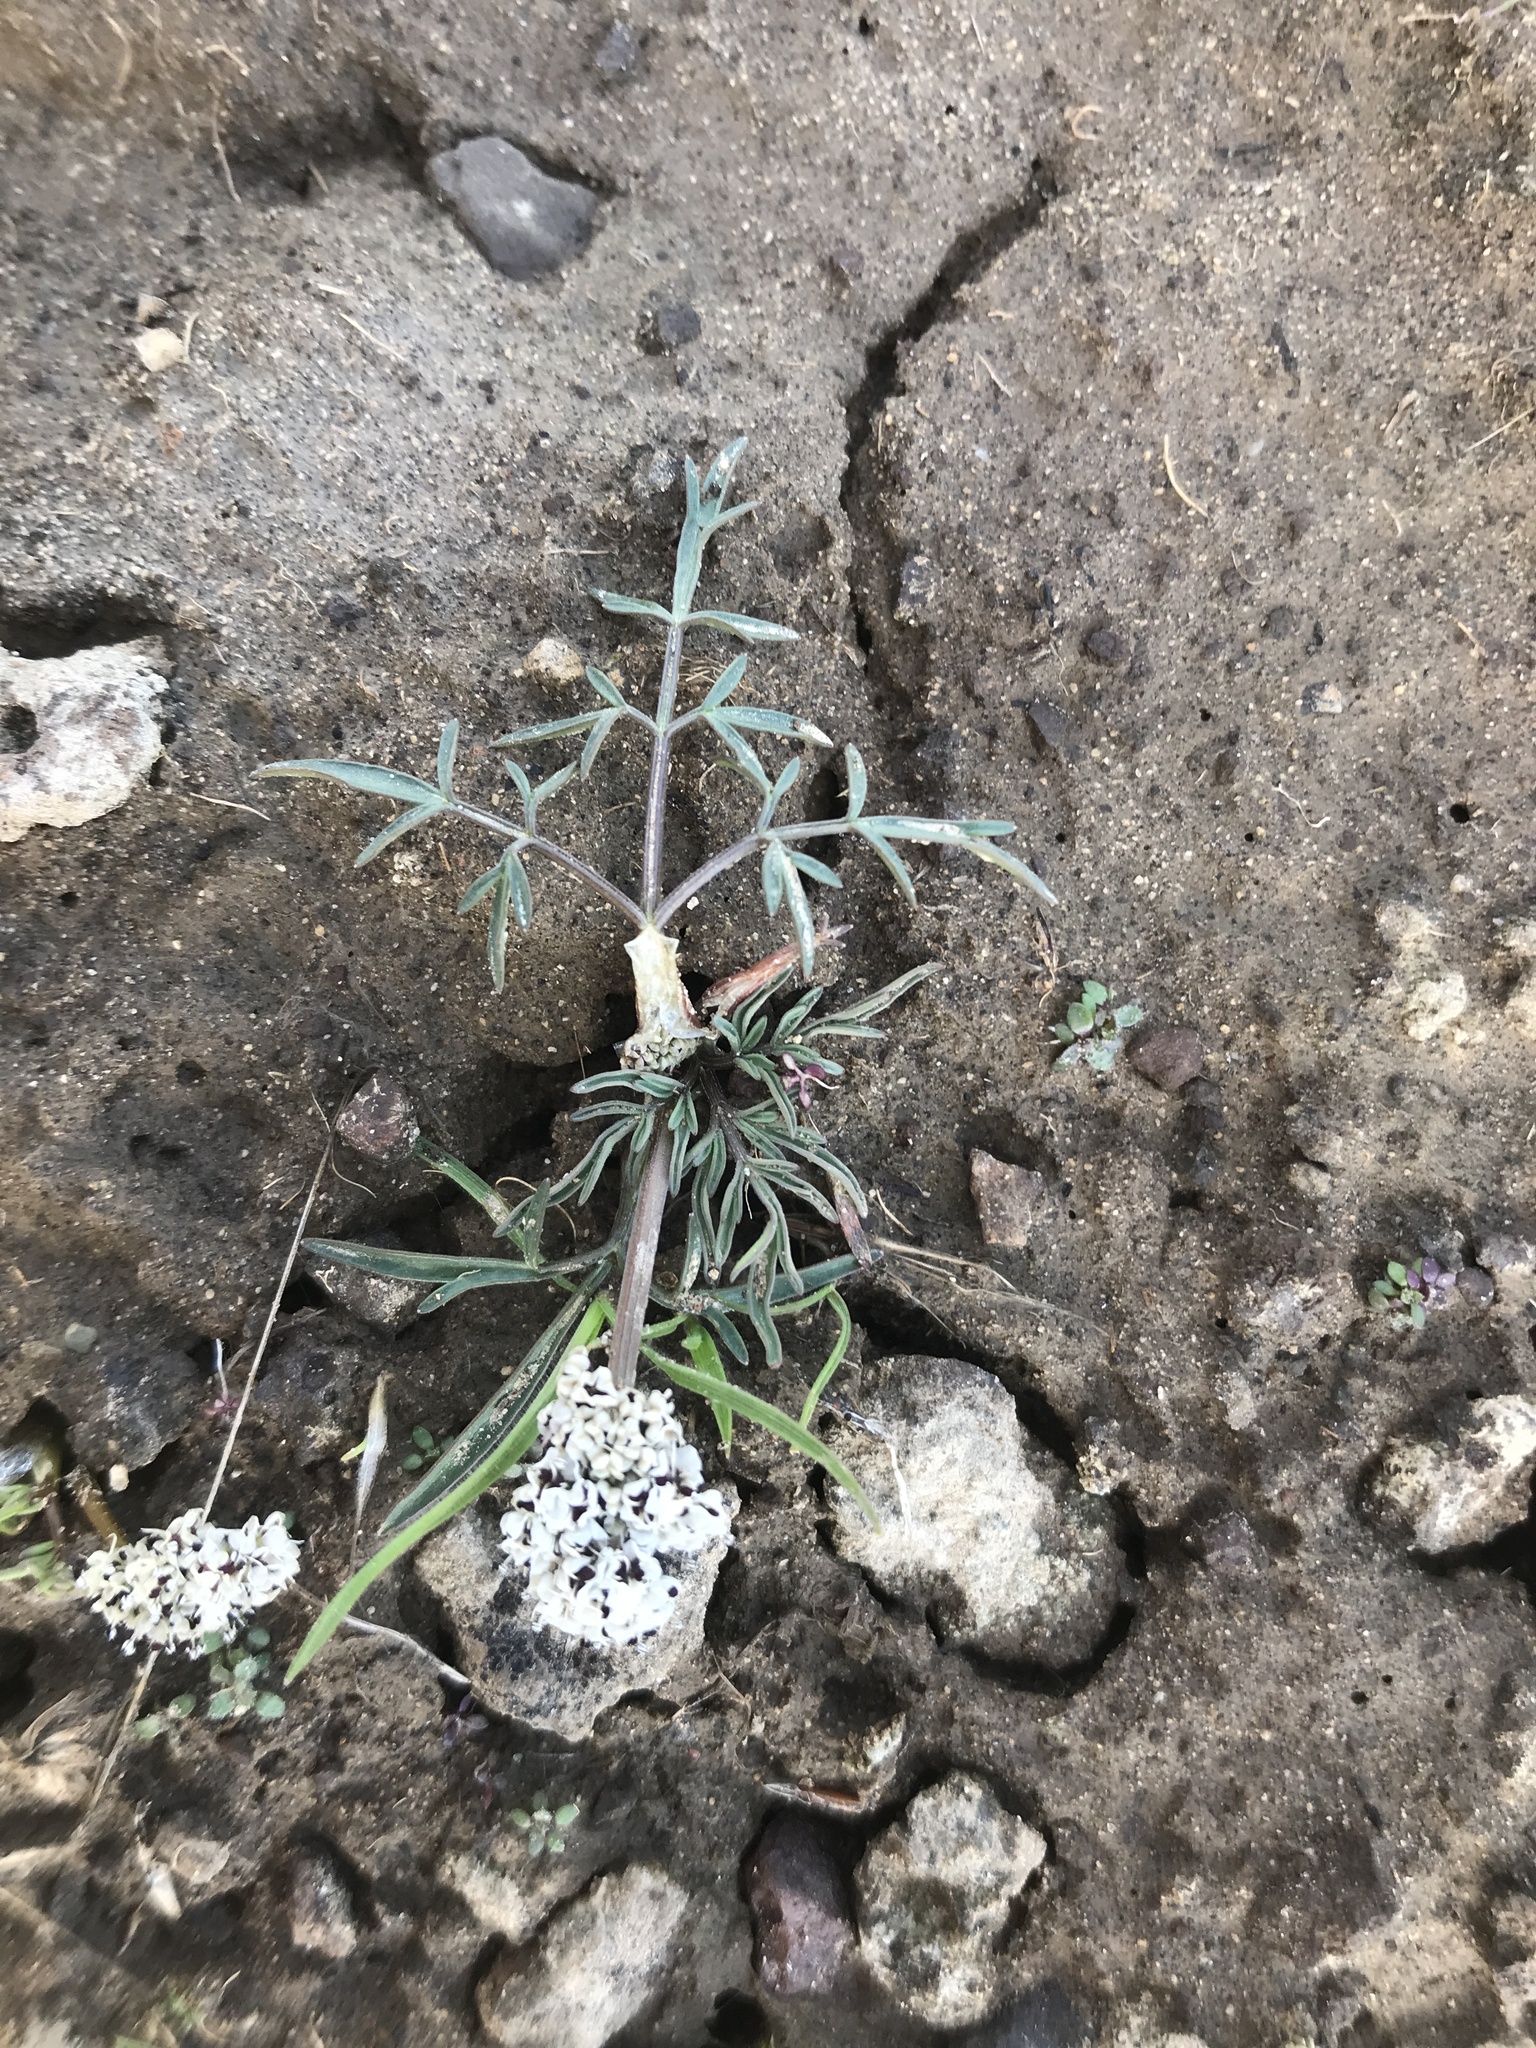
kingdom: Plantae
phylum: Tracheophyta
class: Magnoliopsida
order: Apiales
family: Apiaceae
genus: Lomatium
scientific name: Lomatium gormanii
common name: Gorman's biscuitroot
